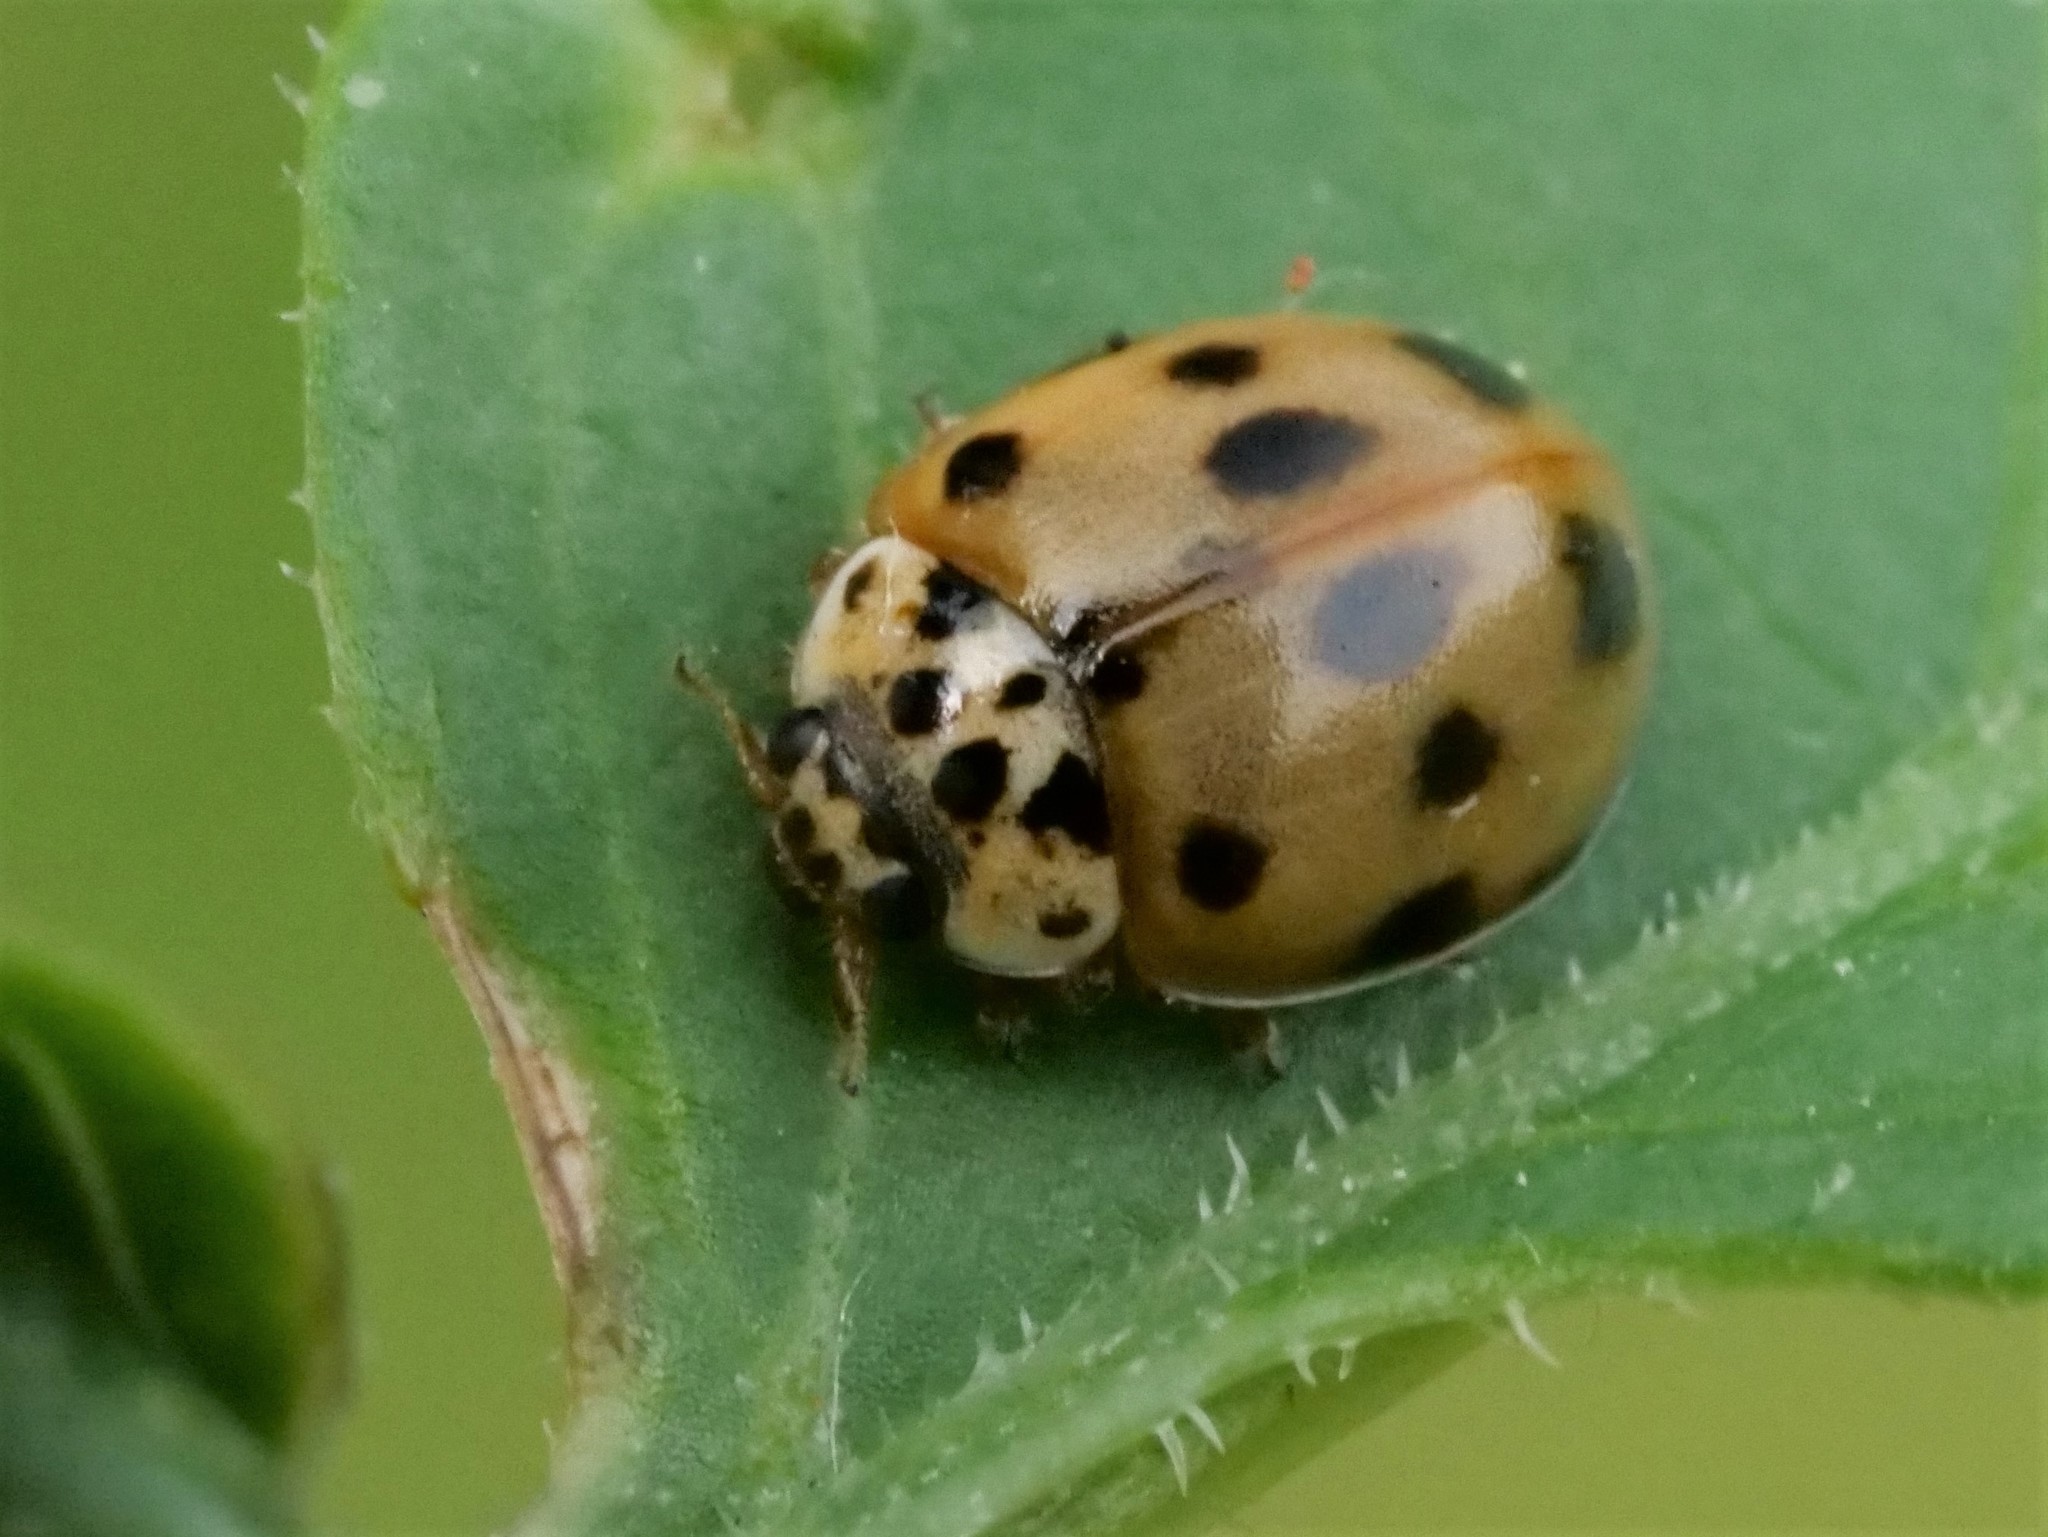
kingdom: Animalia
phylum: Arthropoda
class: Insecta
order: Coleoptera
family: Coccinellidae
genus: Adalia
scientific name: Adalia decempunctata
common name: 10-spot ladybird
